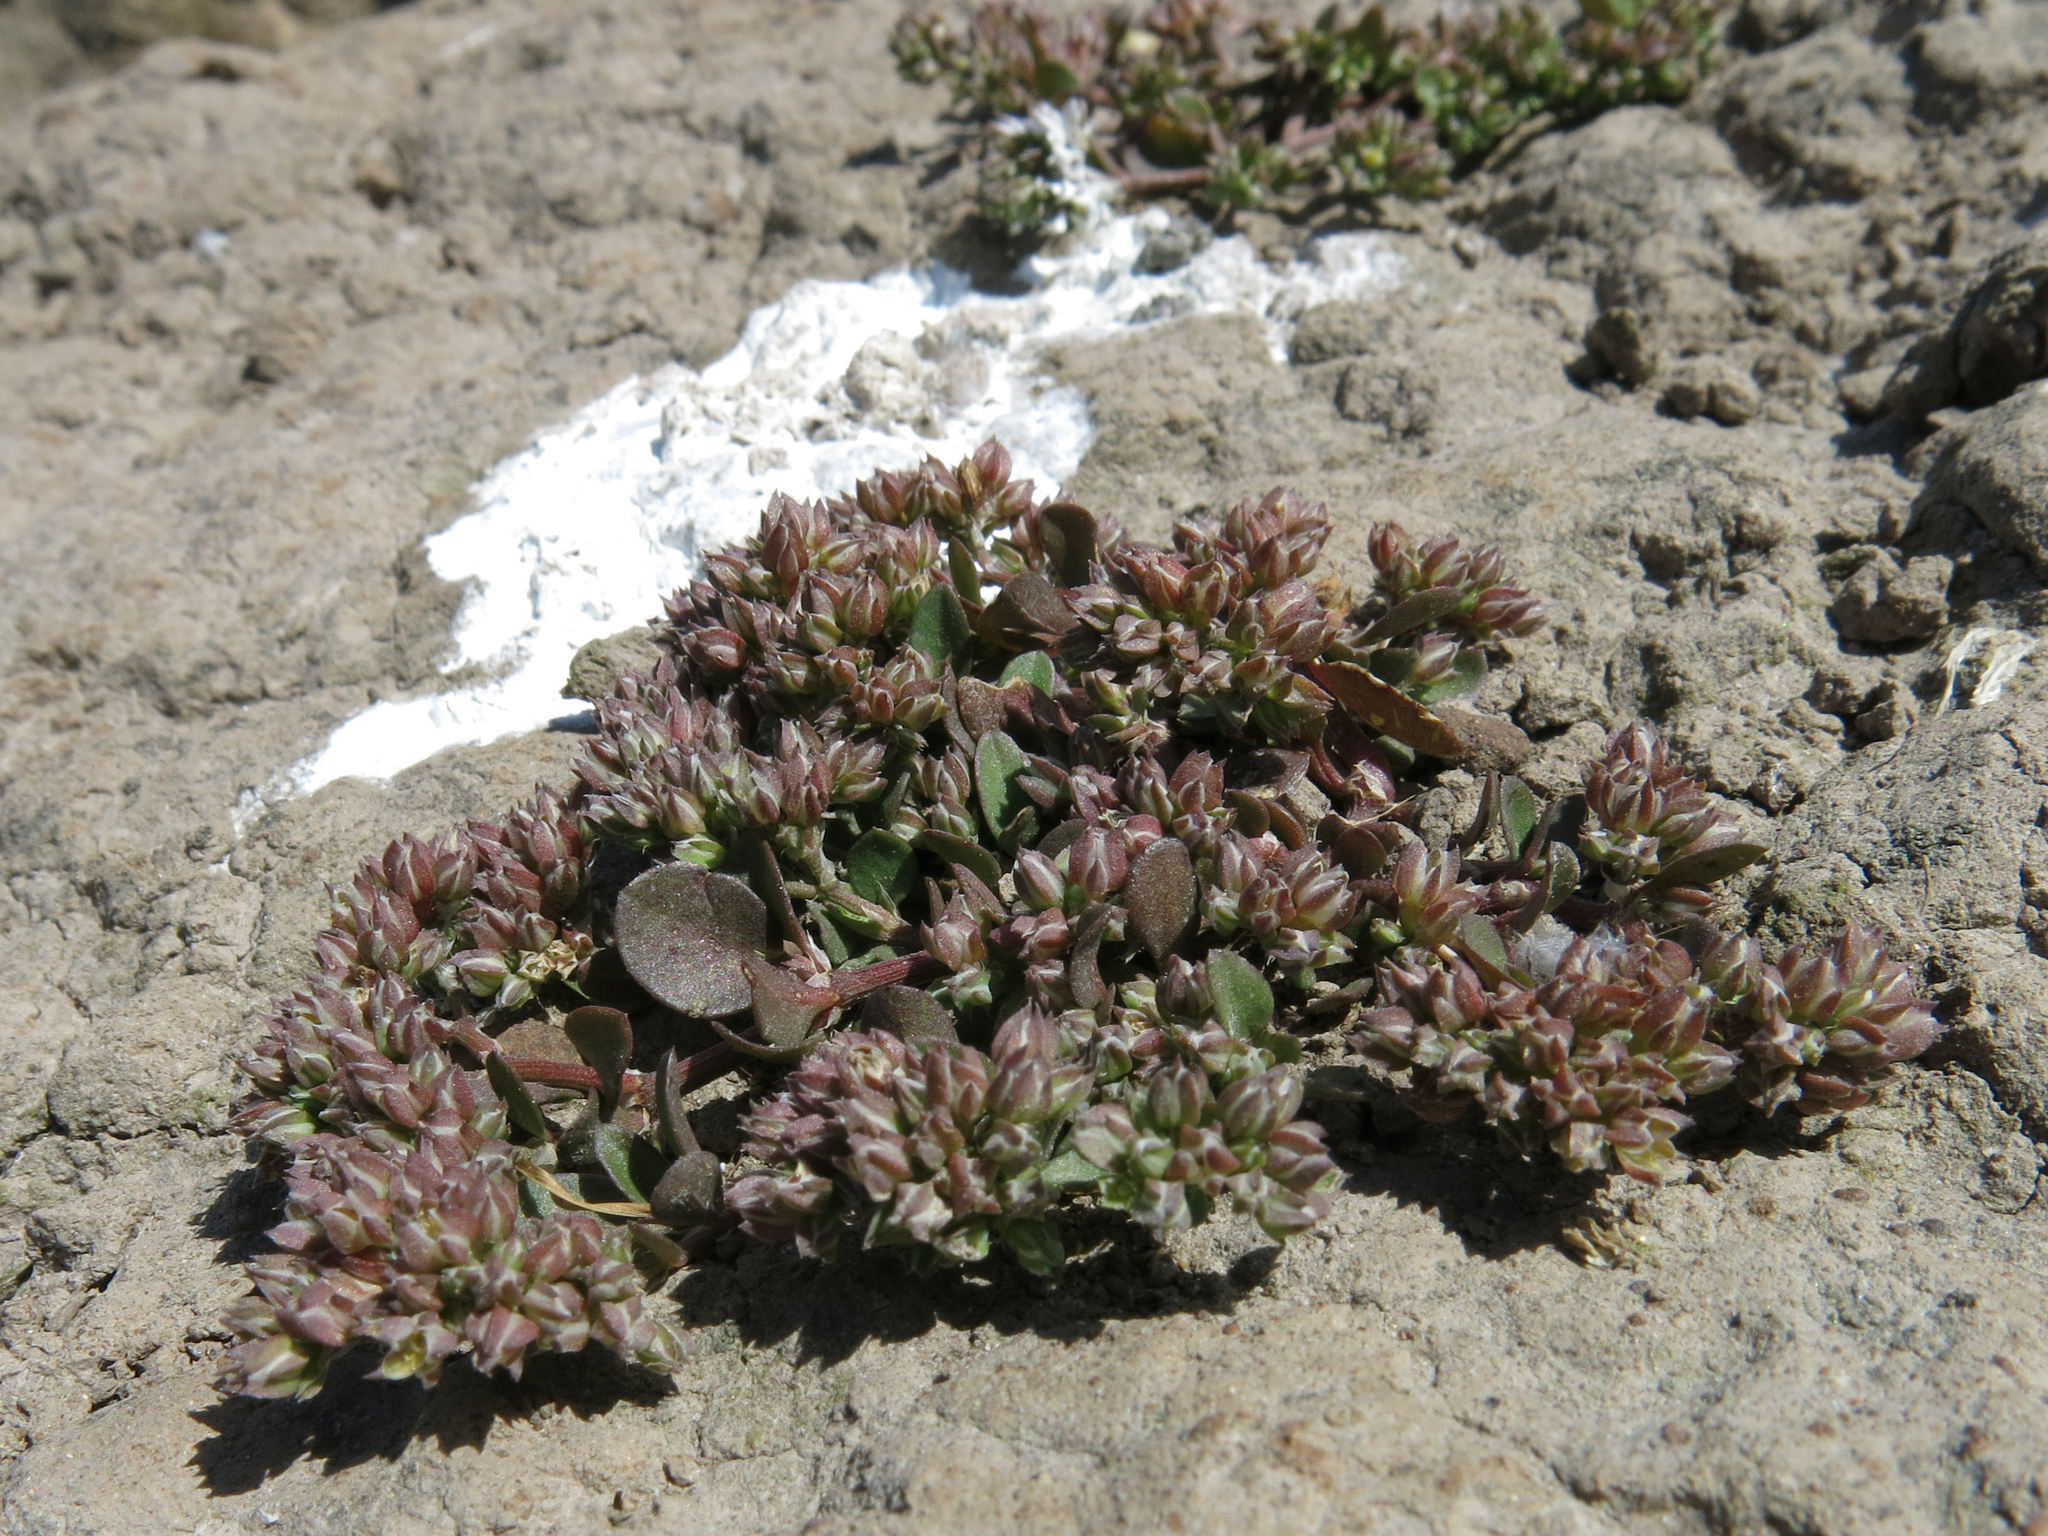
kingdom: Plantae
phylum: Tracheophyta
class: Magnoliopsida
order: Caryophyllales
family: Caryophyllaceae
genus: Polycarpon
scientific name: Polycarpon tetraphyllum
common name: Four-leaved all-seed
